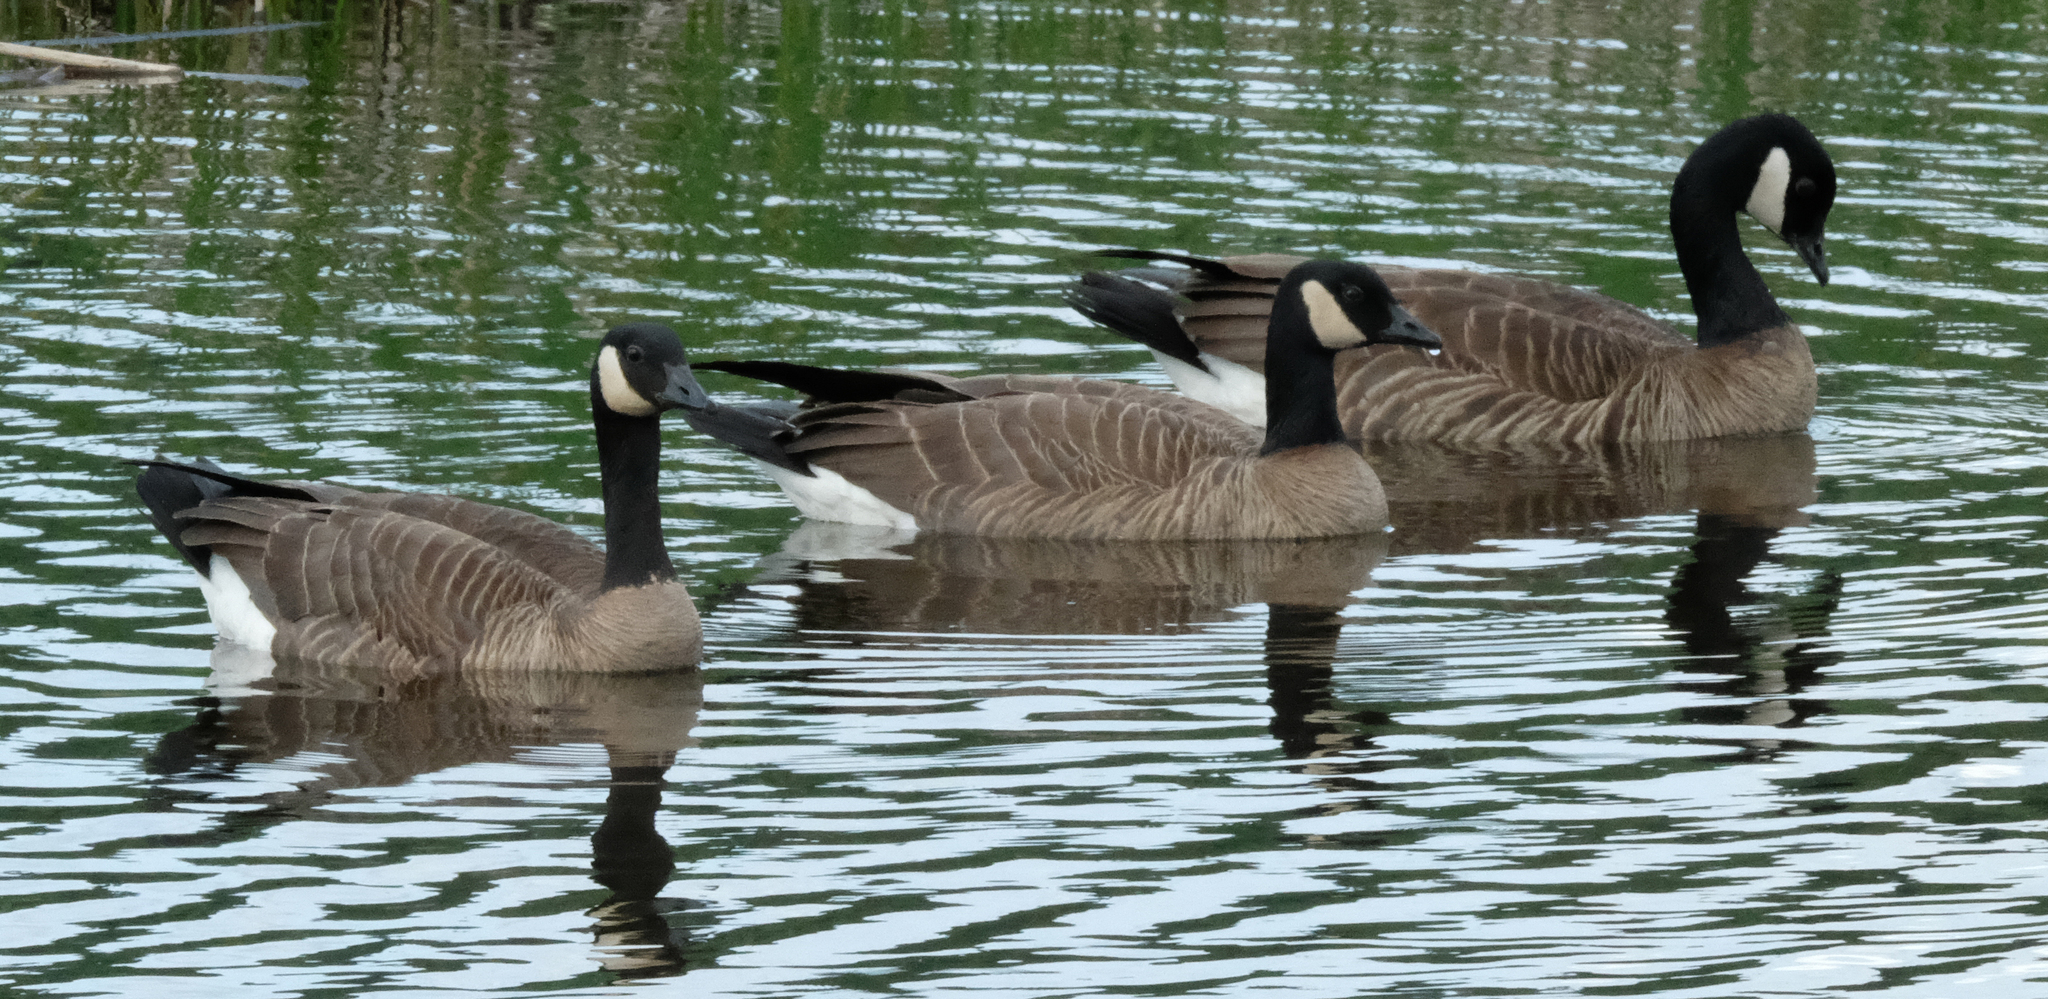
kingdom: Animalia
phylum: Chordata
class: Aves
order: Anseriformes
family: Anatidae
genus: Branta
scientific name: Branta canadensis
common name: Canada goose
